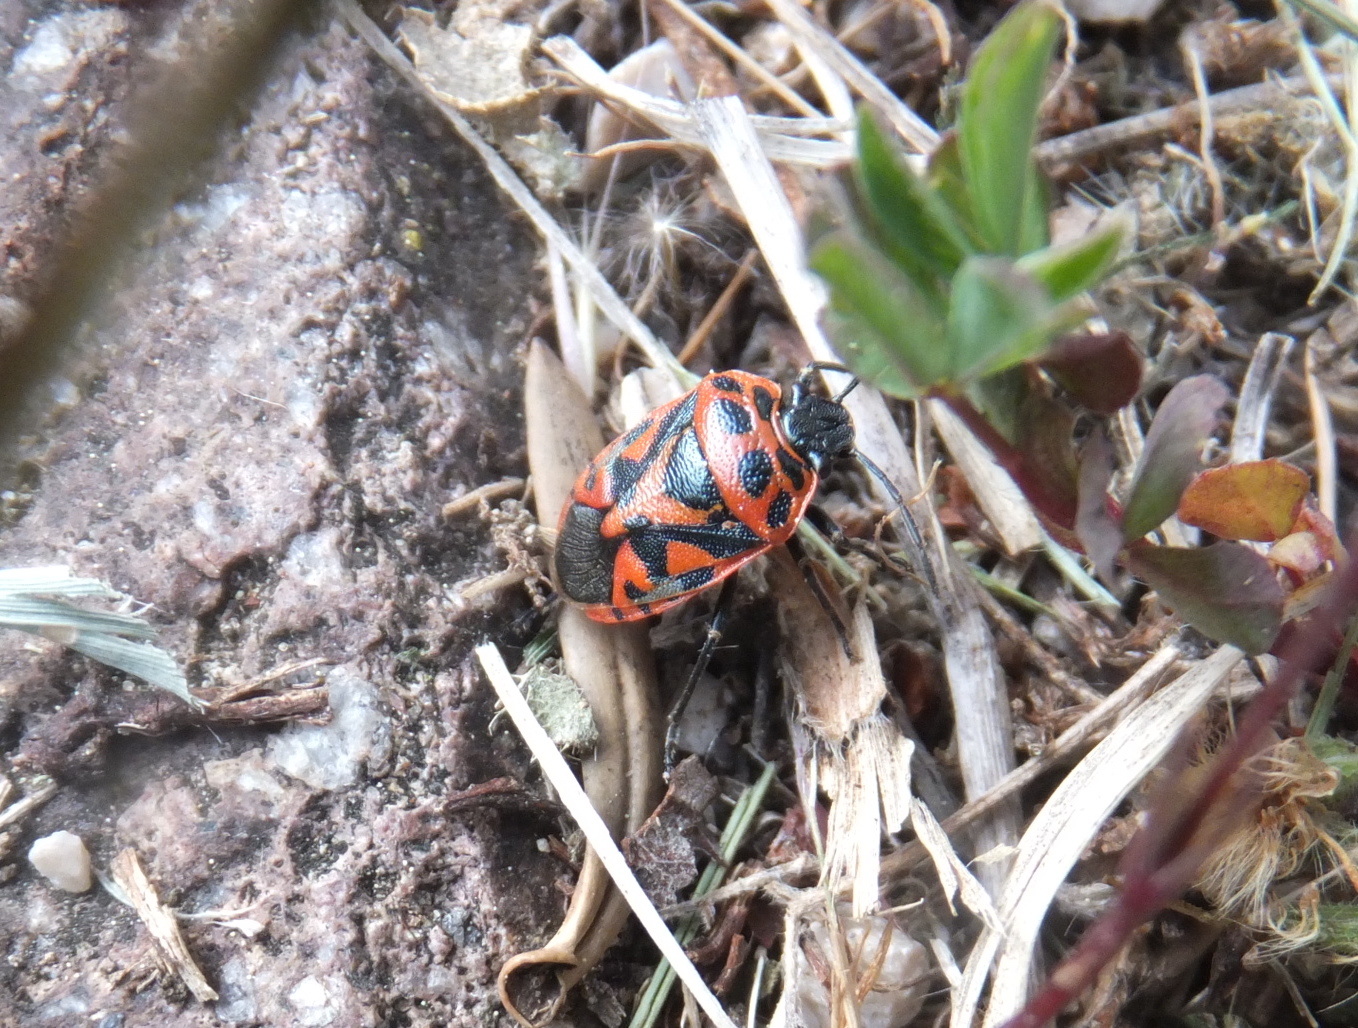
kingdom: Animalia
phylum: Arthropoda
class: Insecta
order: Hemiptera
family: Pentatomidae
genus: Eurydema
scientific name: Eurydema ornata
